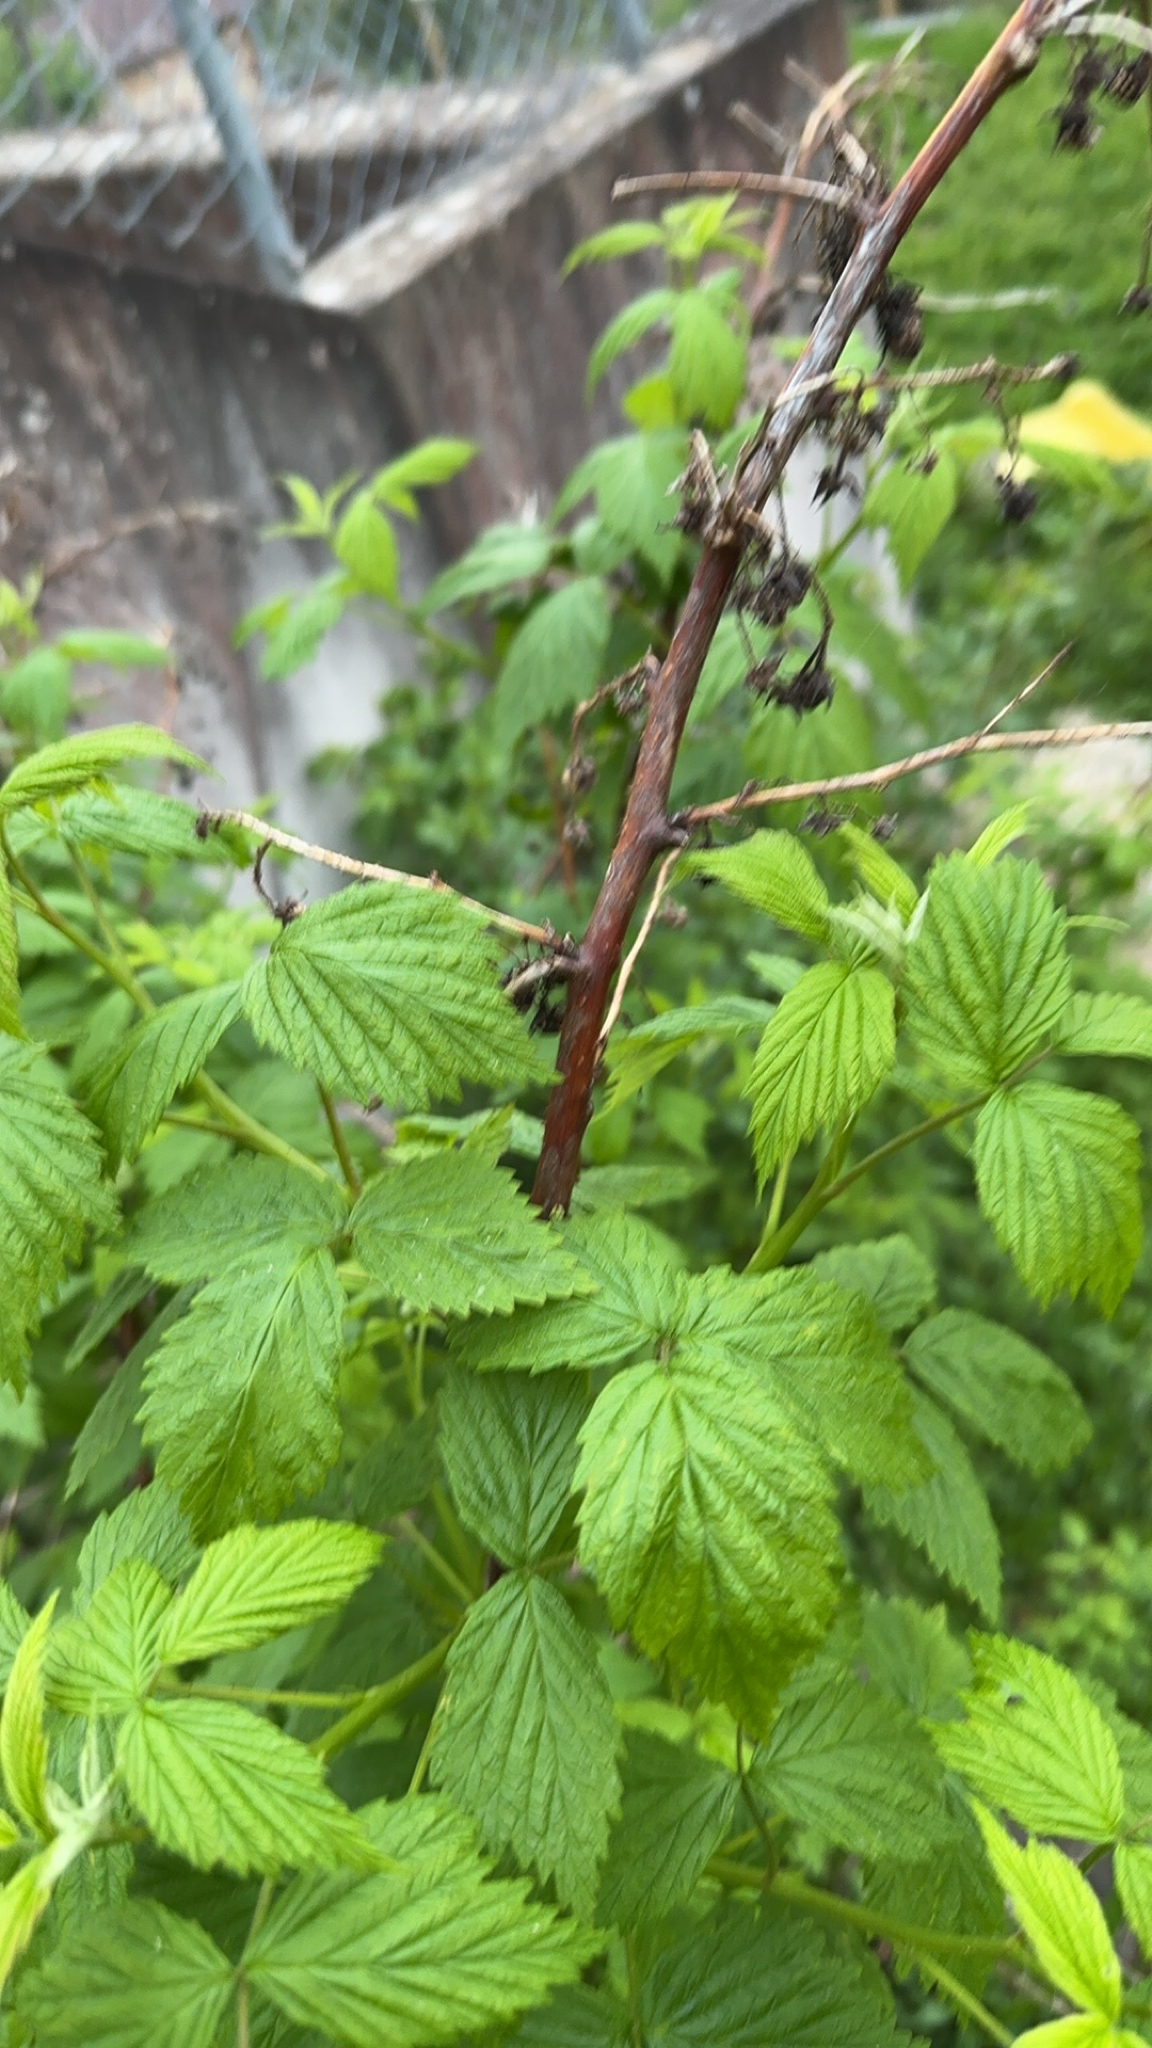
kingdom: Plantae
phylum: Tracheophyta
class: Magnoliopsida
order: Rosales
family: Rosaceae
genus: Rubus
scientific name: Rubus idaeus
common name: Raspberry
